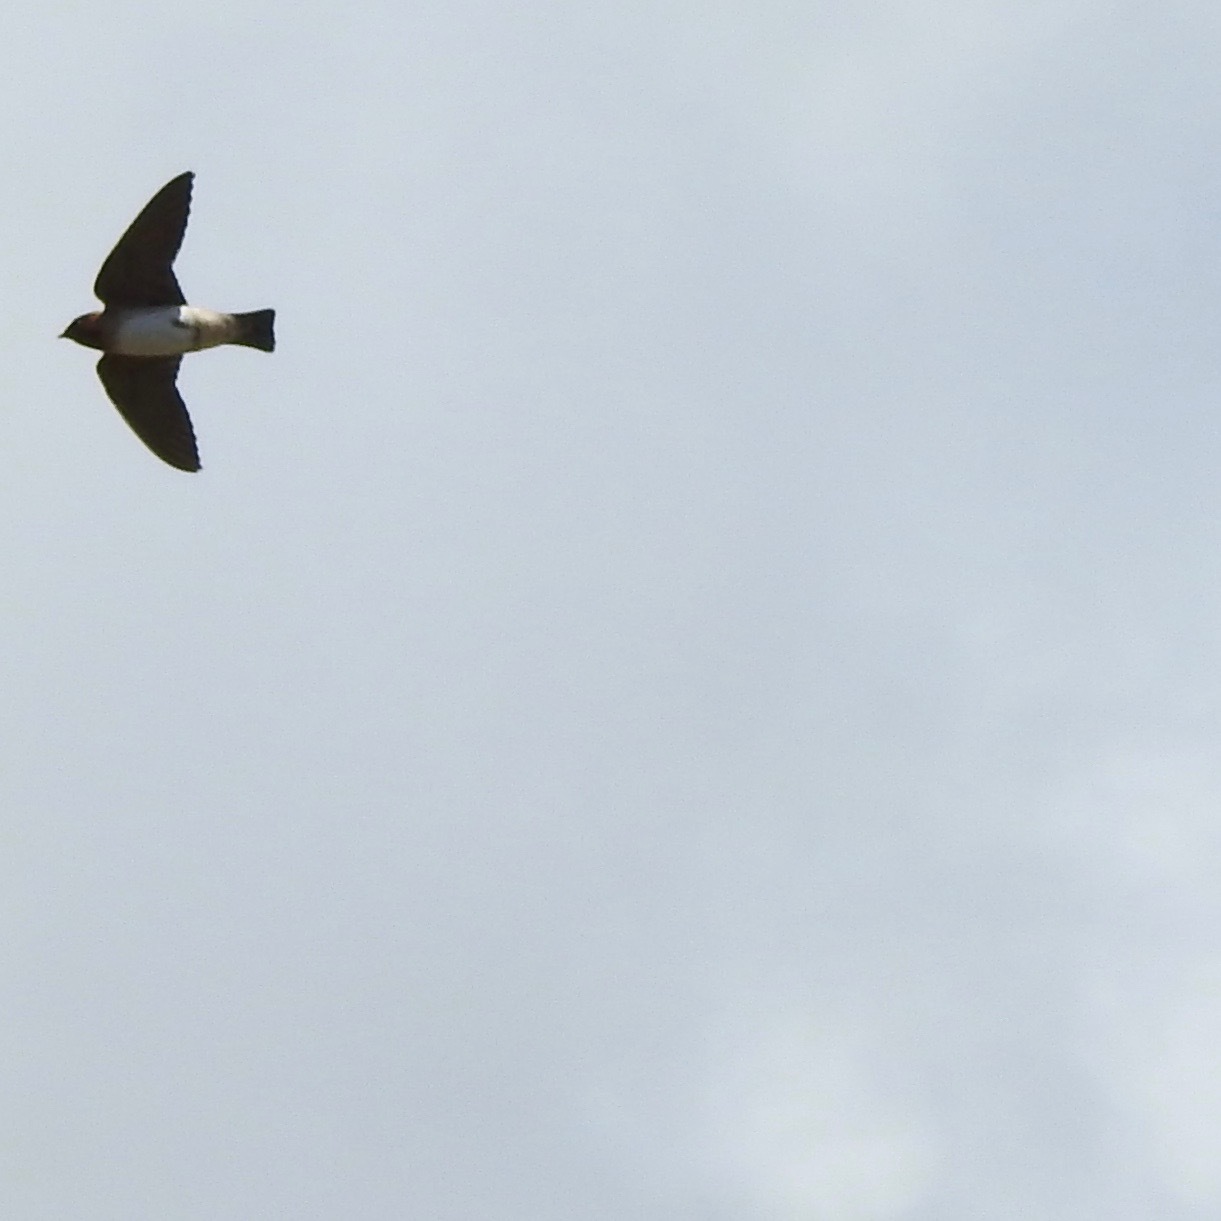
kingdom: Animalia
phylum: Chordata
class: Aves
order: Passeriformes
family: Hirundinidae
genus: Petrochelidon
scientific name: Petrochelidon pyrrhonota
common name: American cliff swallow
